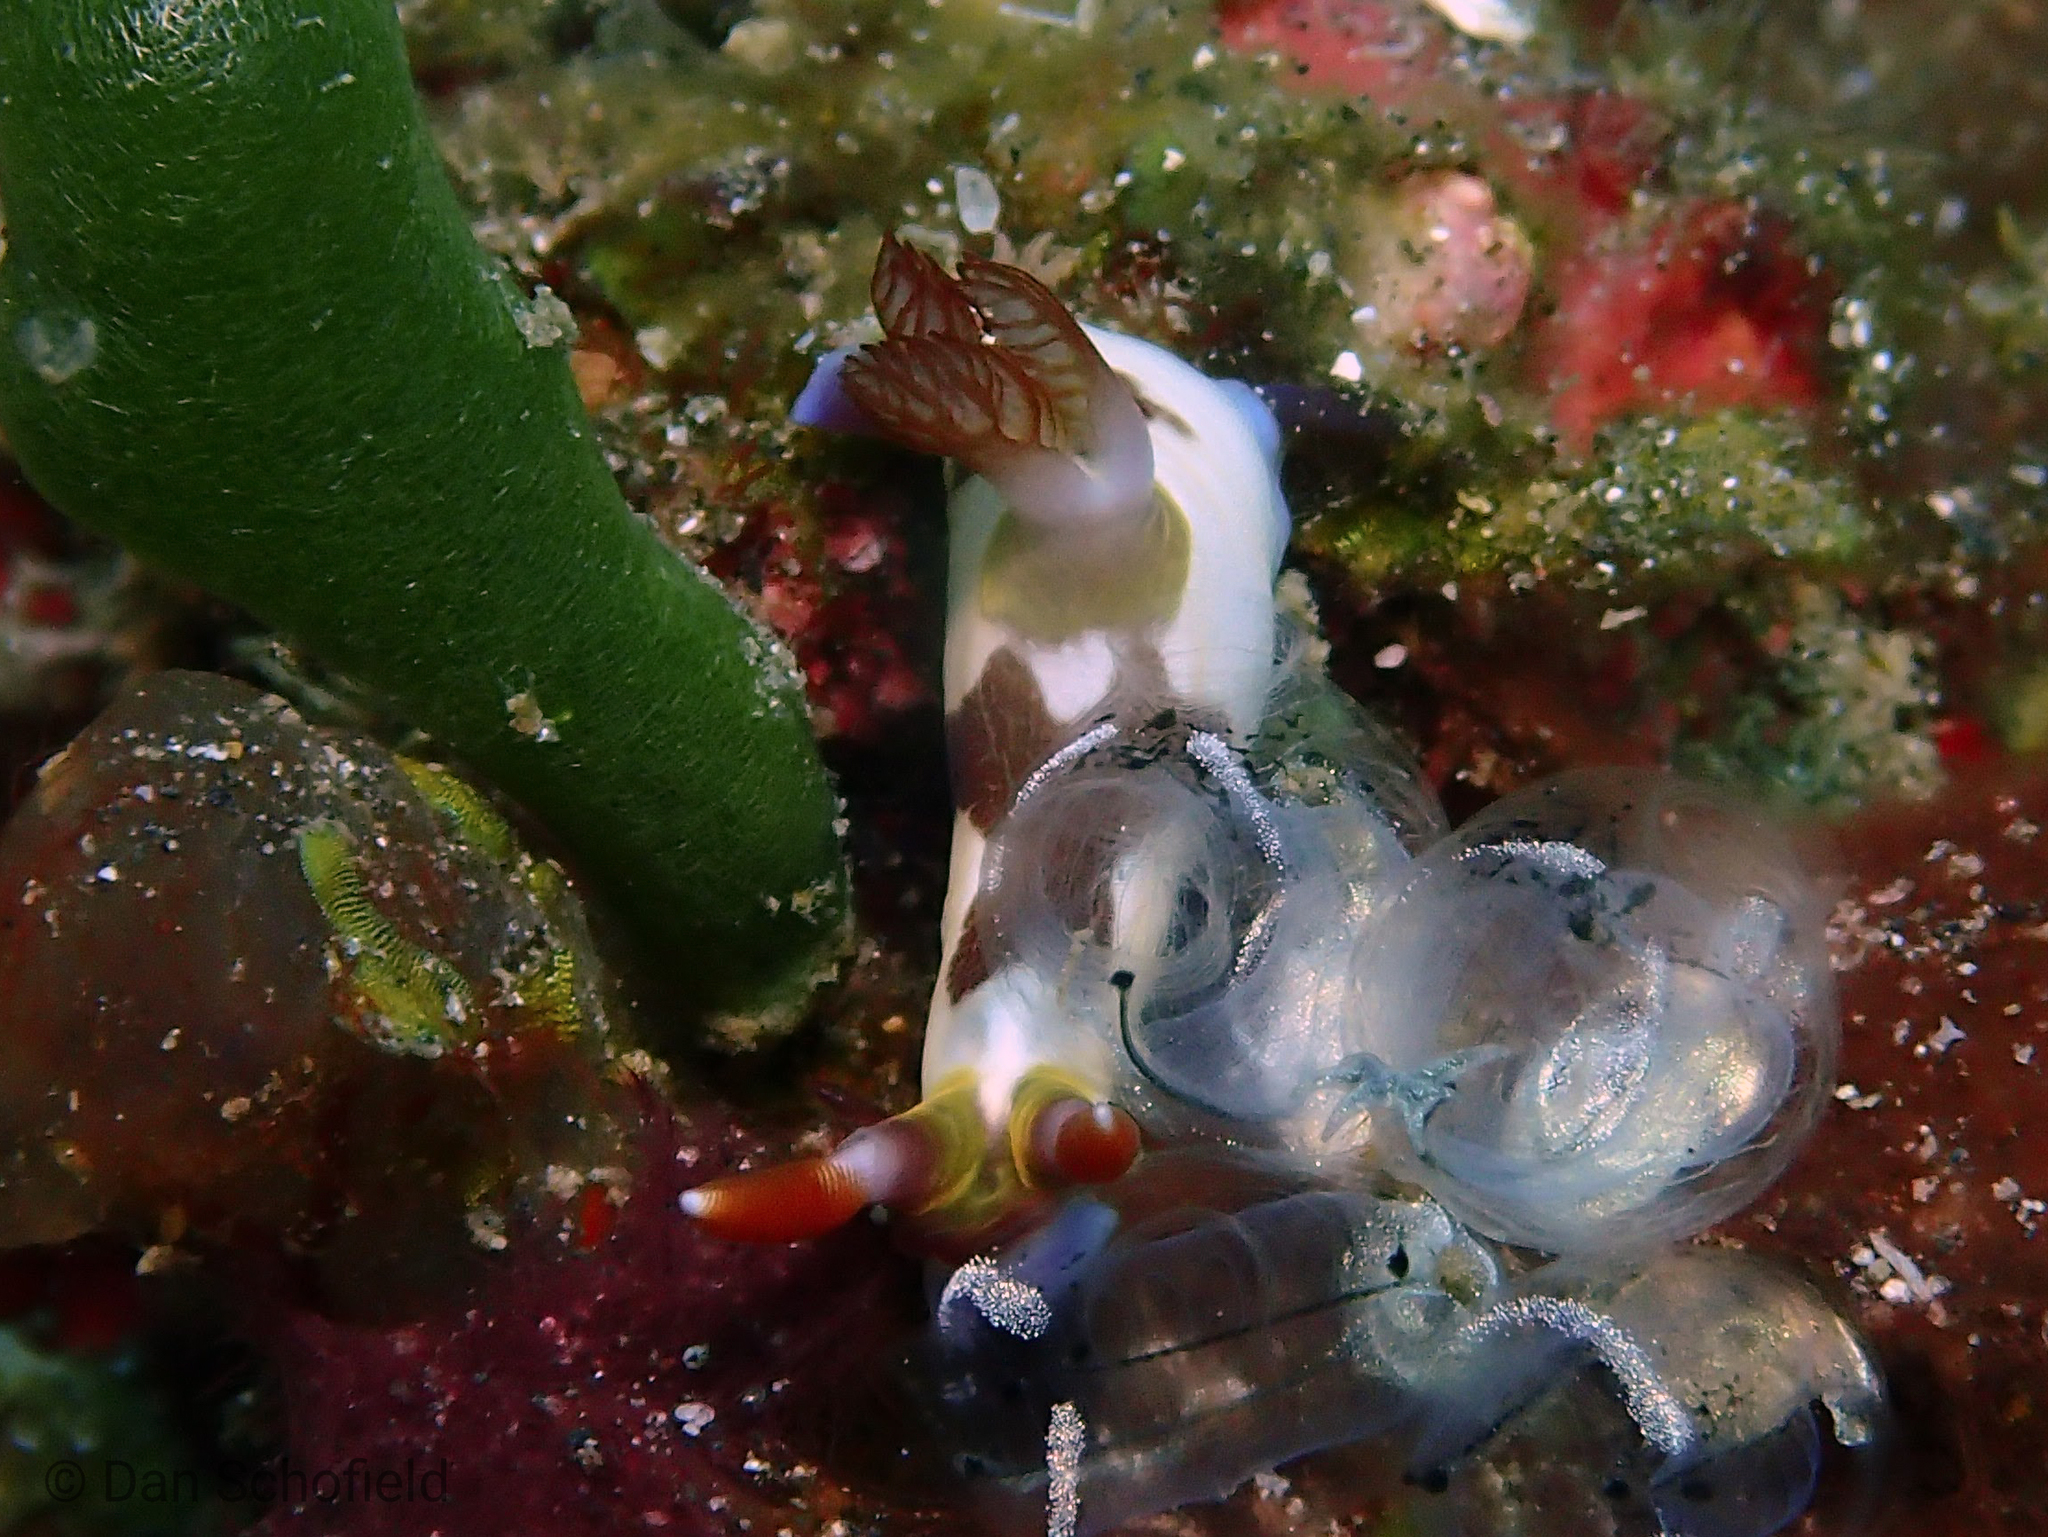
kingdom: Animalia
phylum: Mollusca
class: Gastropoda
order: Nudibranchia
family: Polyceridae
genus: Nembrotha
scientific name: Nembrotha chamberlaini
